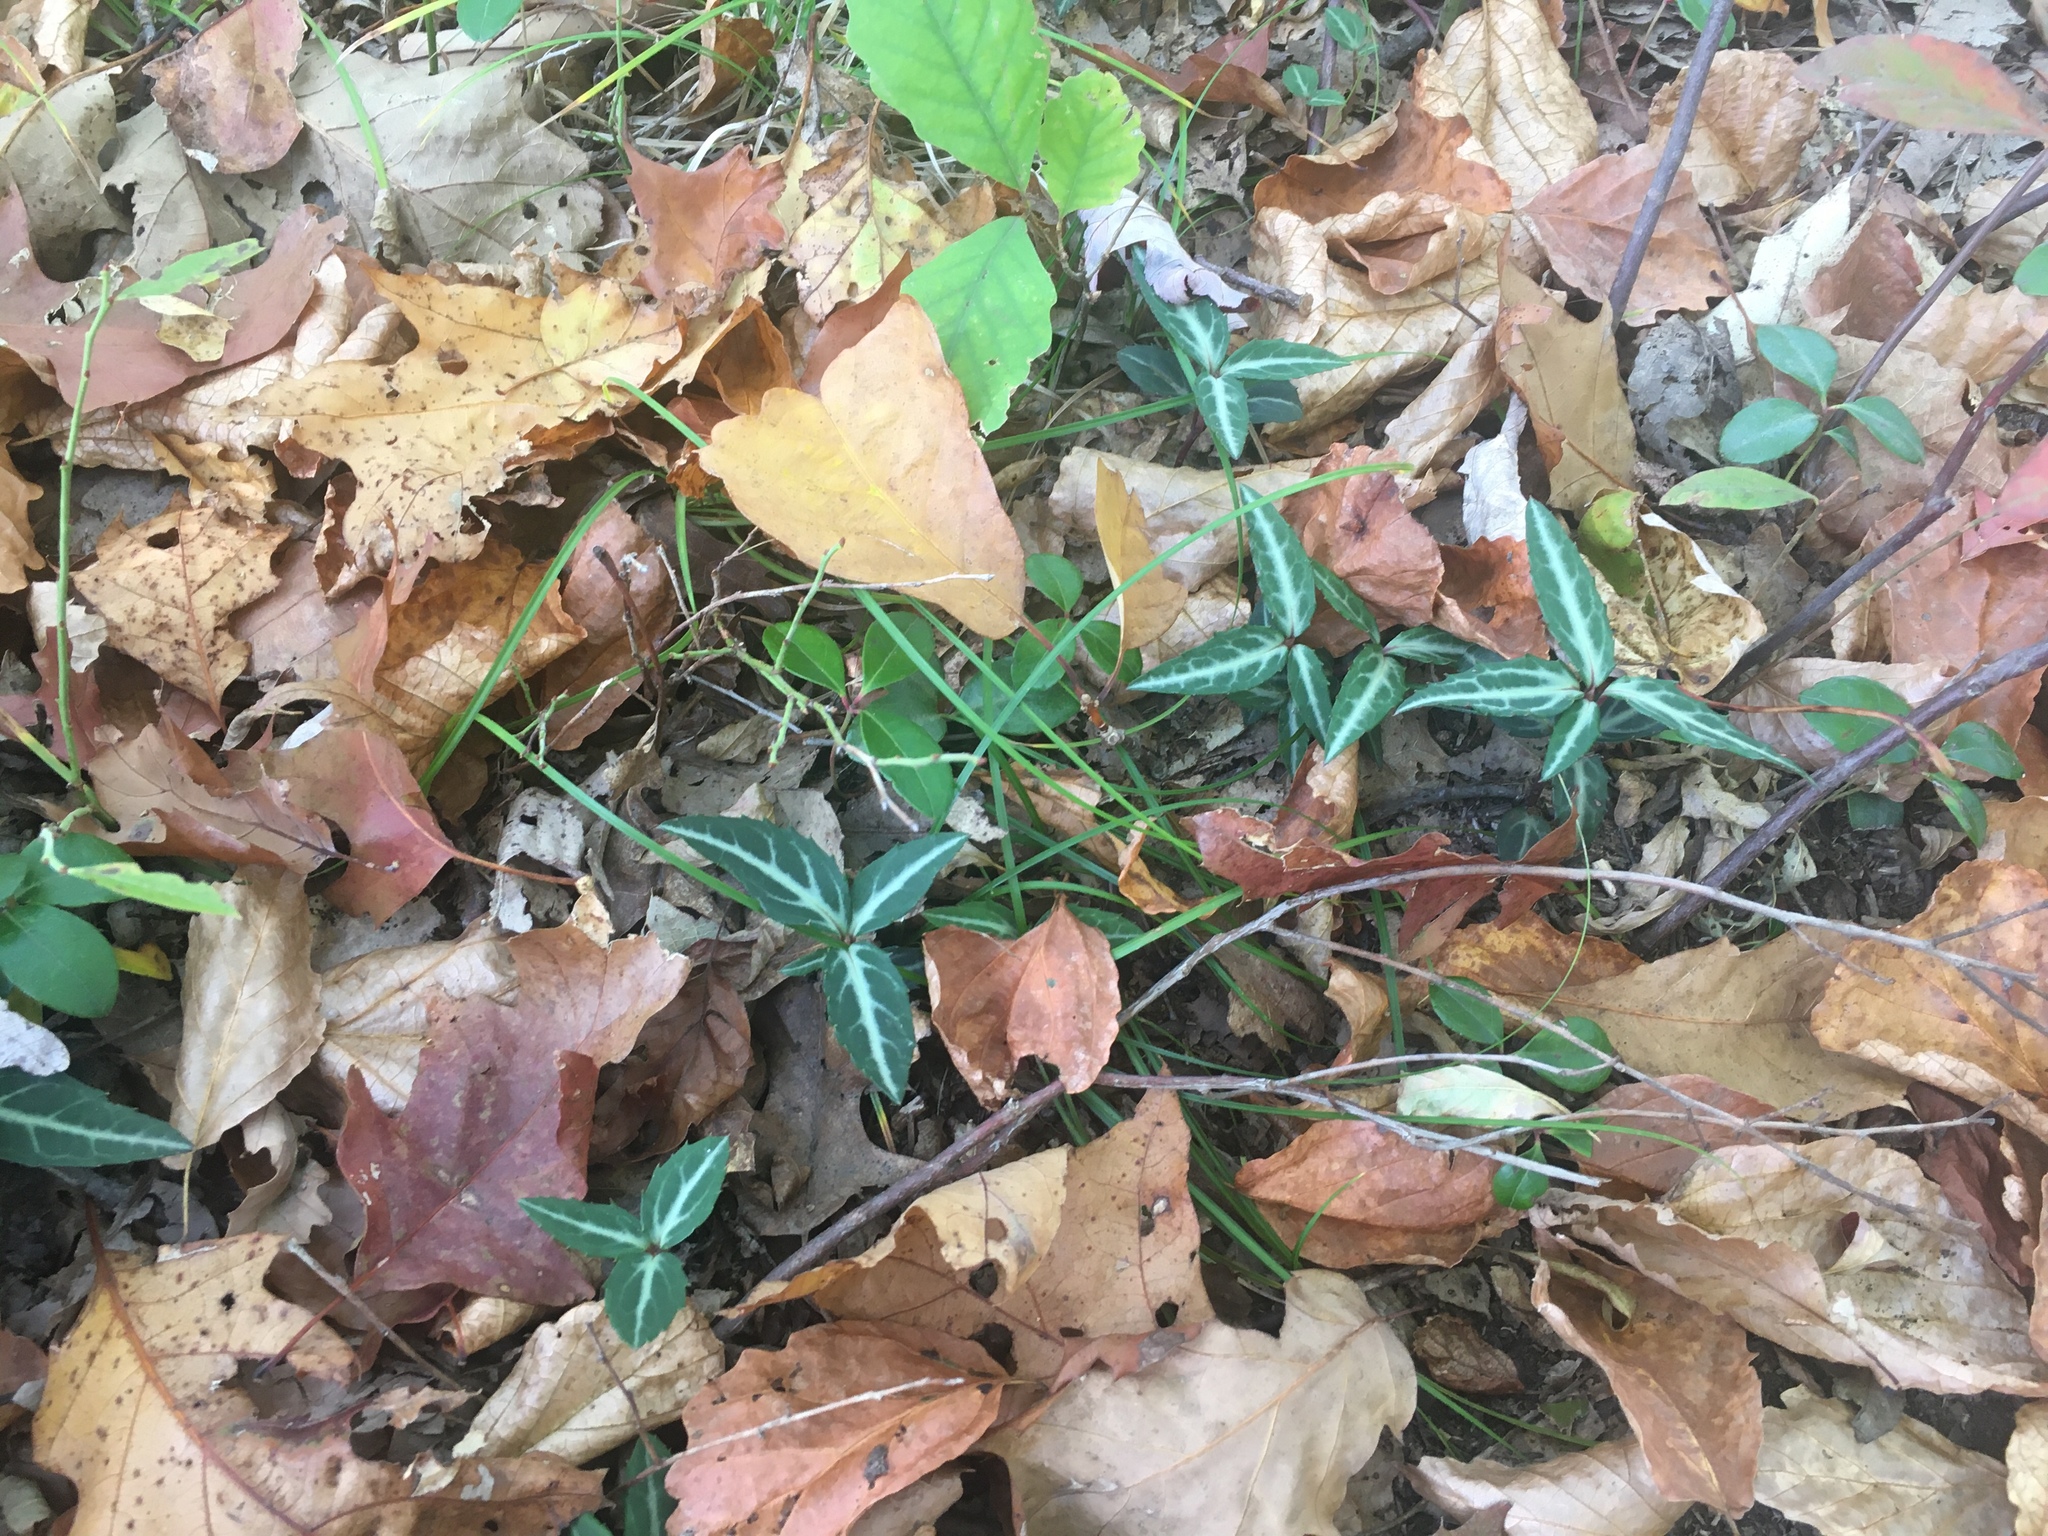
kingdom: Plantae
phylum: Tracheophyta
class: Magnoliopsida
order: Ericales
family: Ericaceae
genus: Chimaphila
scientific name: Chimaphila maculata
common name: Spotted pipsissewa
